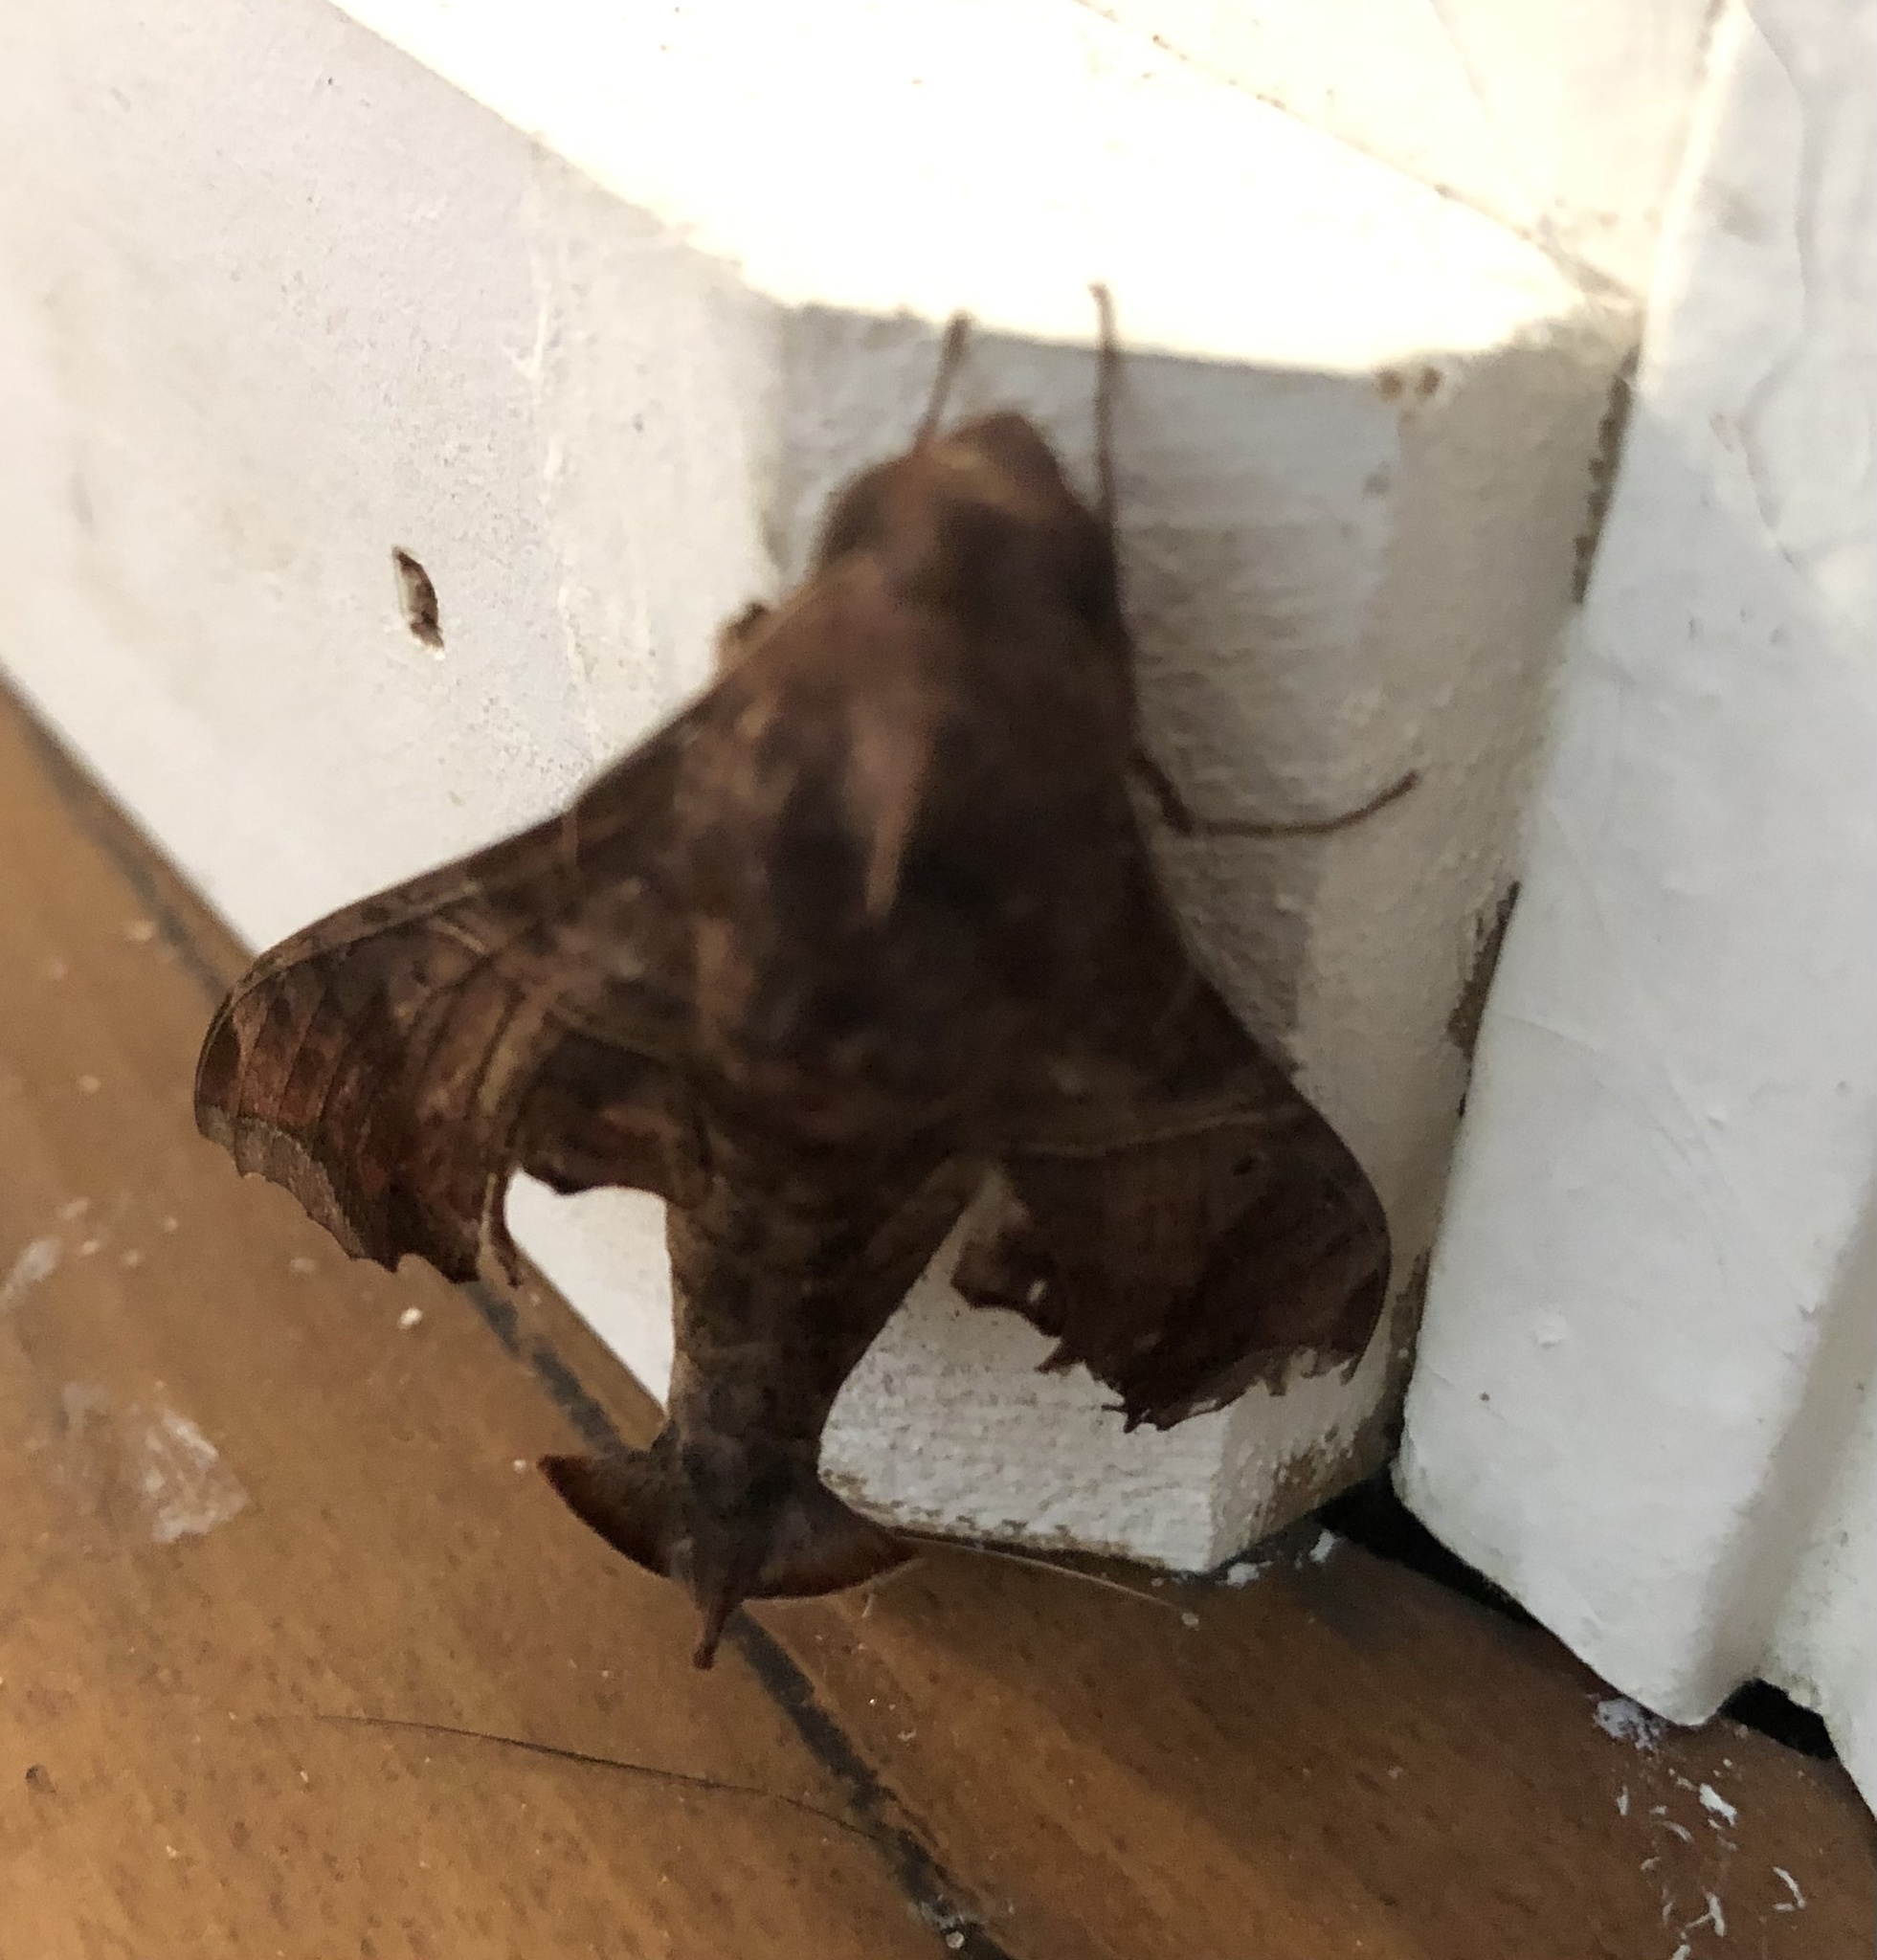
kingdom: Animalia
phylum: Arthropoda
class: Insecta
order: Lepidoptera
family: Sphingidae
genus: Enyo
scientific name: Enyo lugubris
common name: Mournful sphinx
